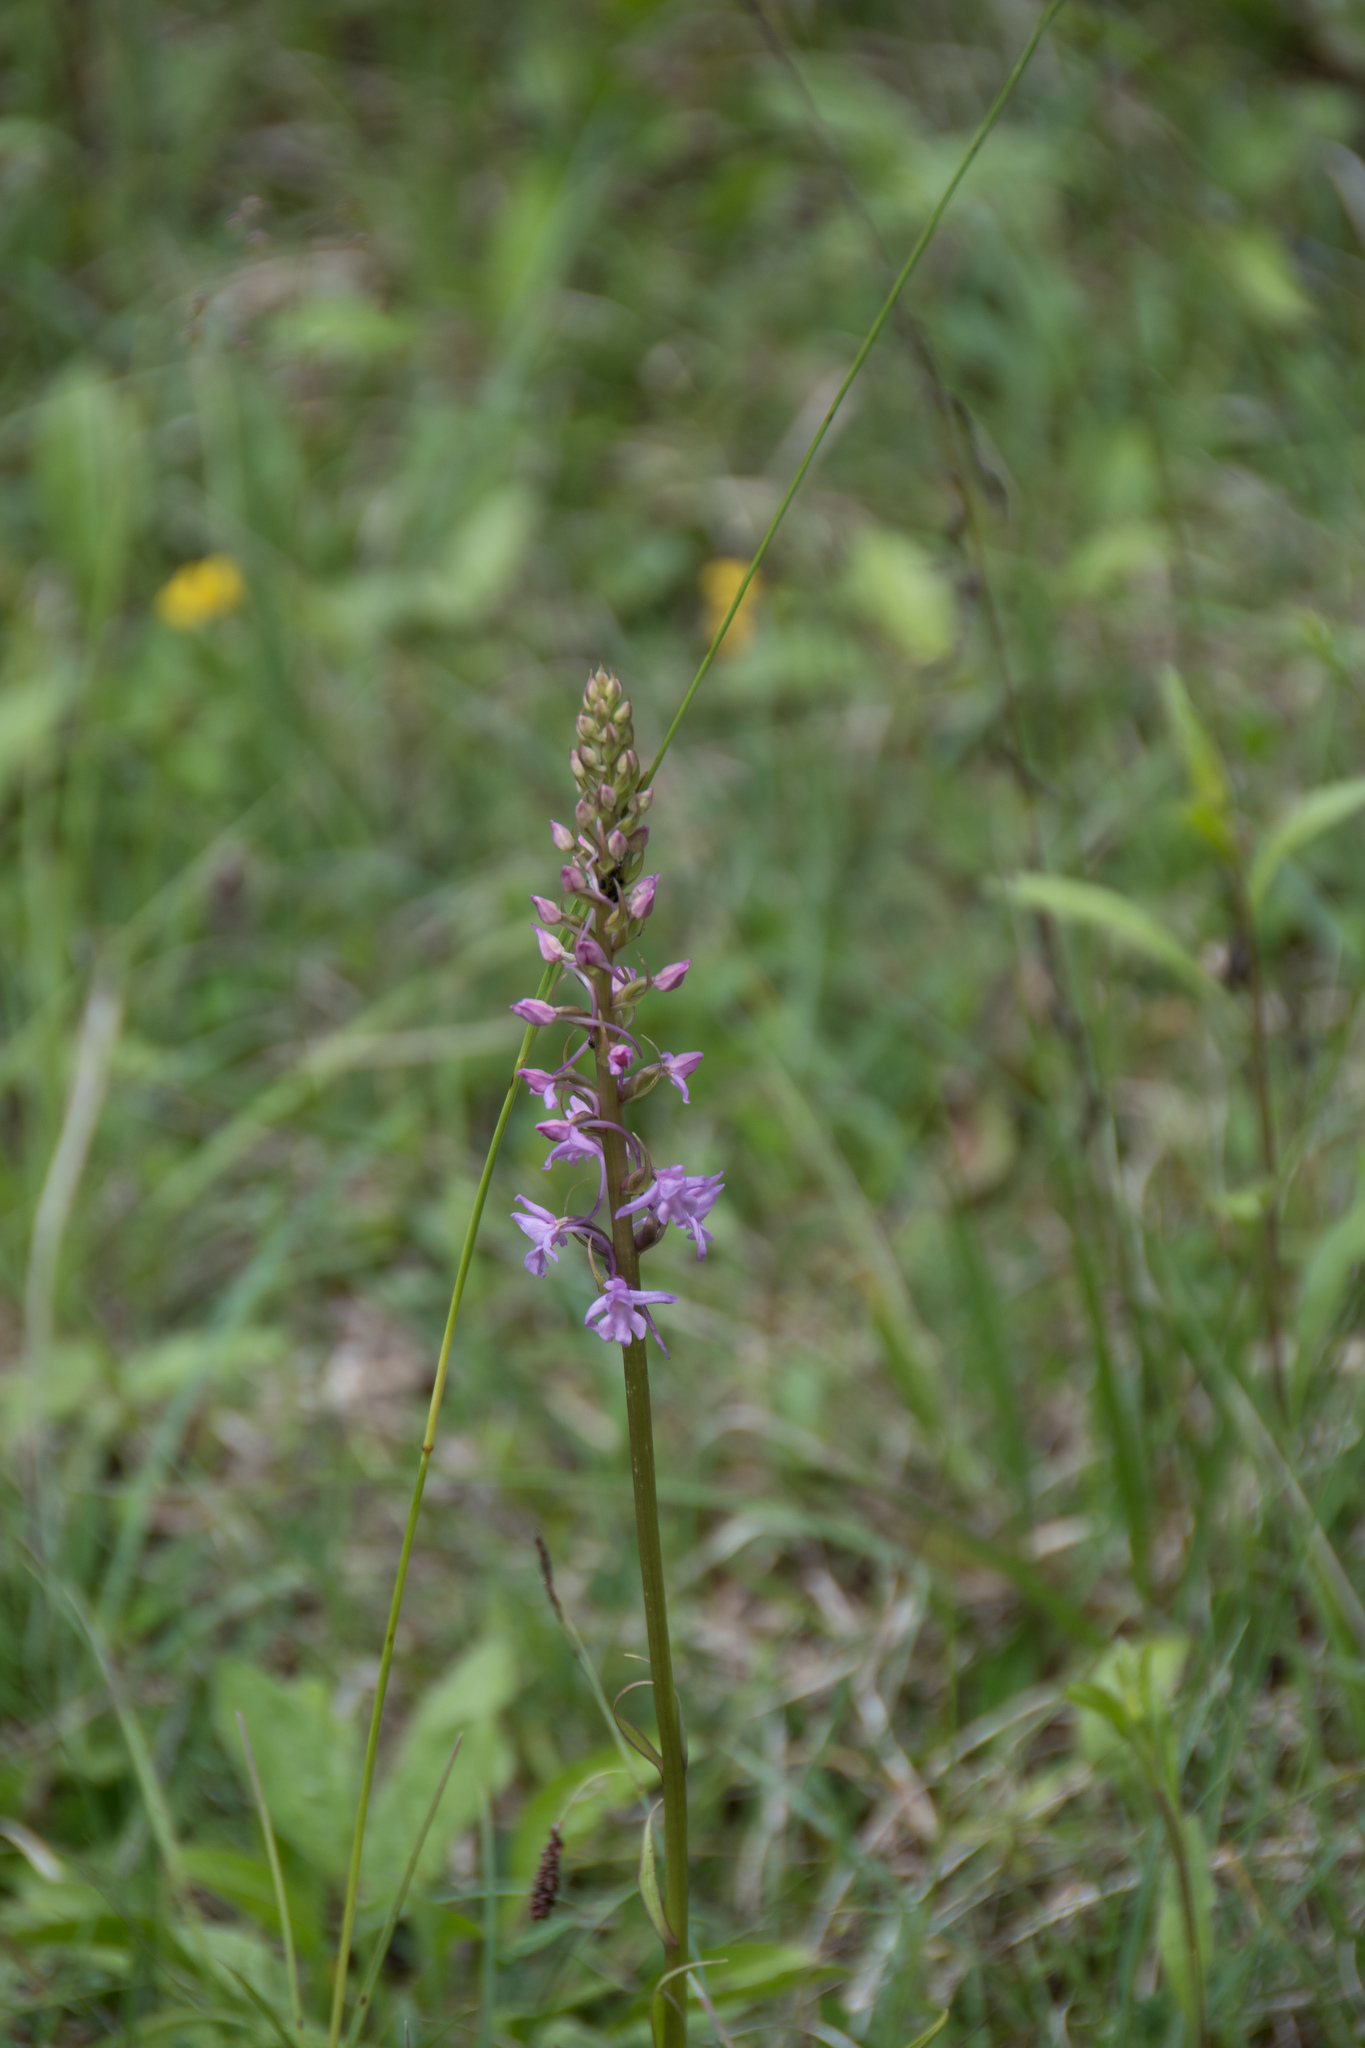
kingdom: Plantae
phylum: Tracheophyta
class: Liliopsida
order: Asparagales
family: Orchidaceae
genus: Gymnadenia
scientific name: Gymnadenia conopsea
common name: Fragrant orchid
